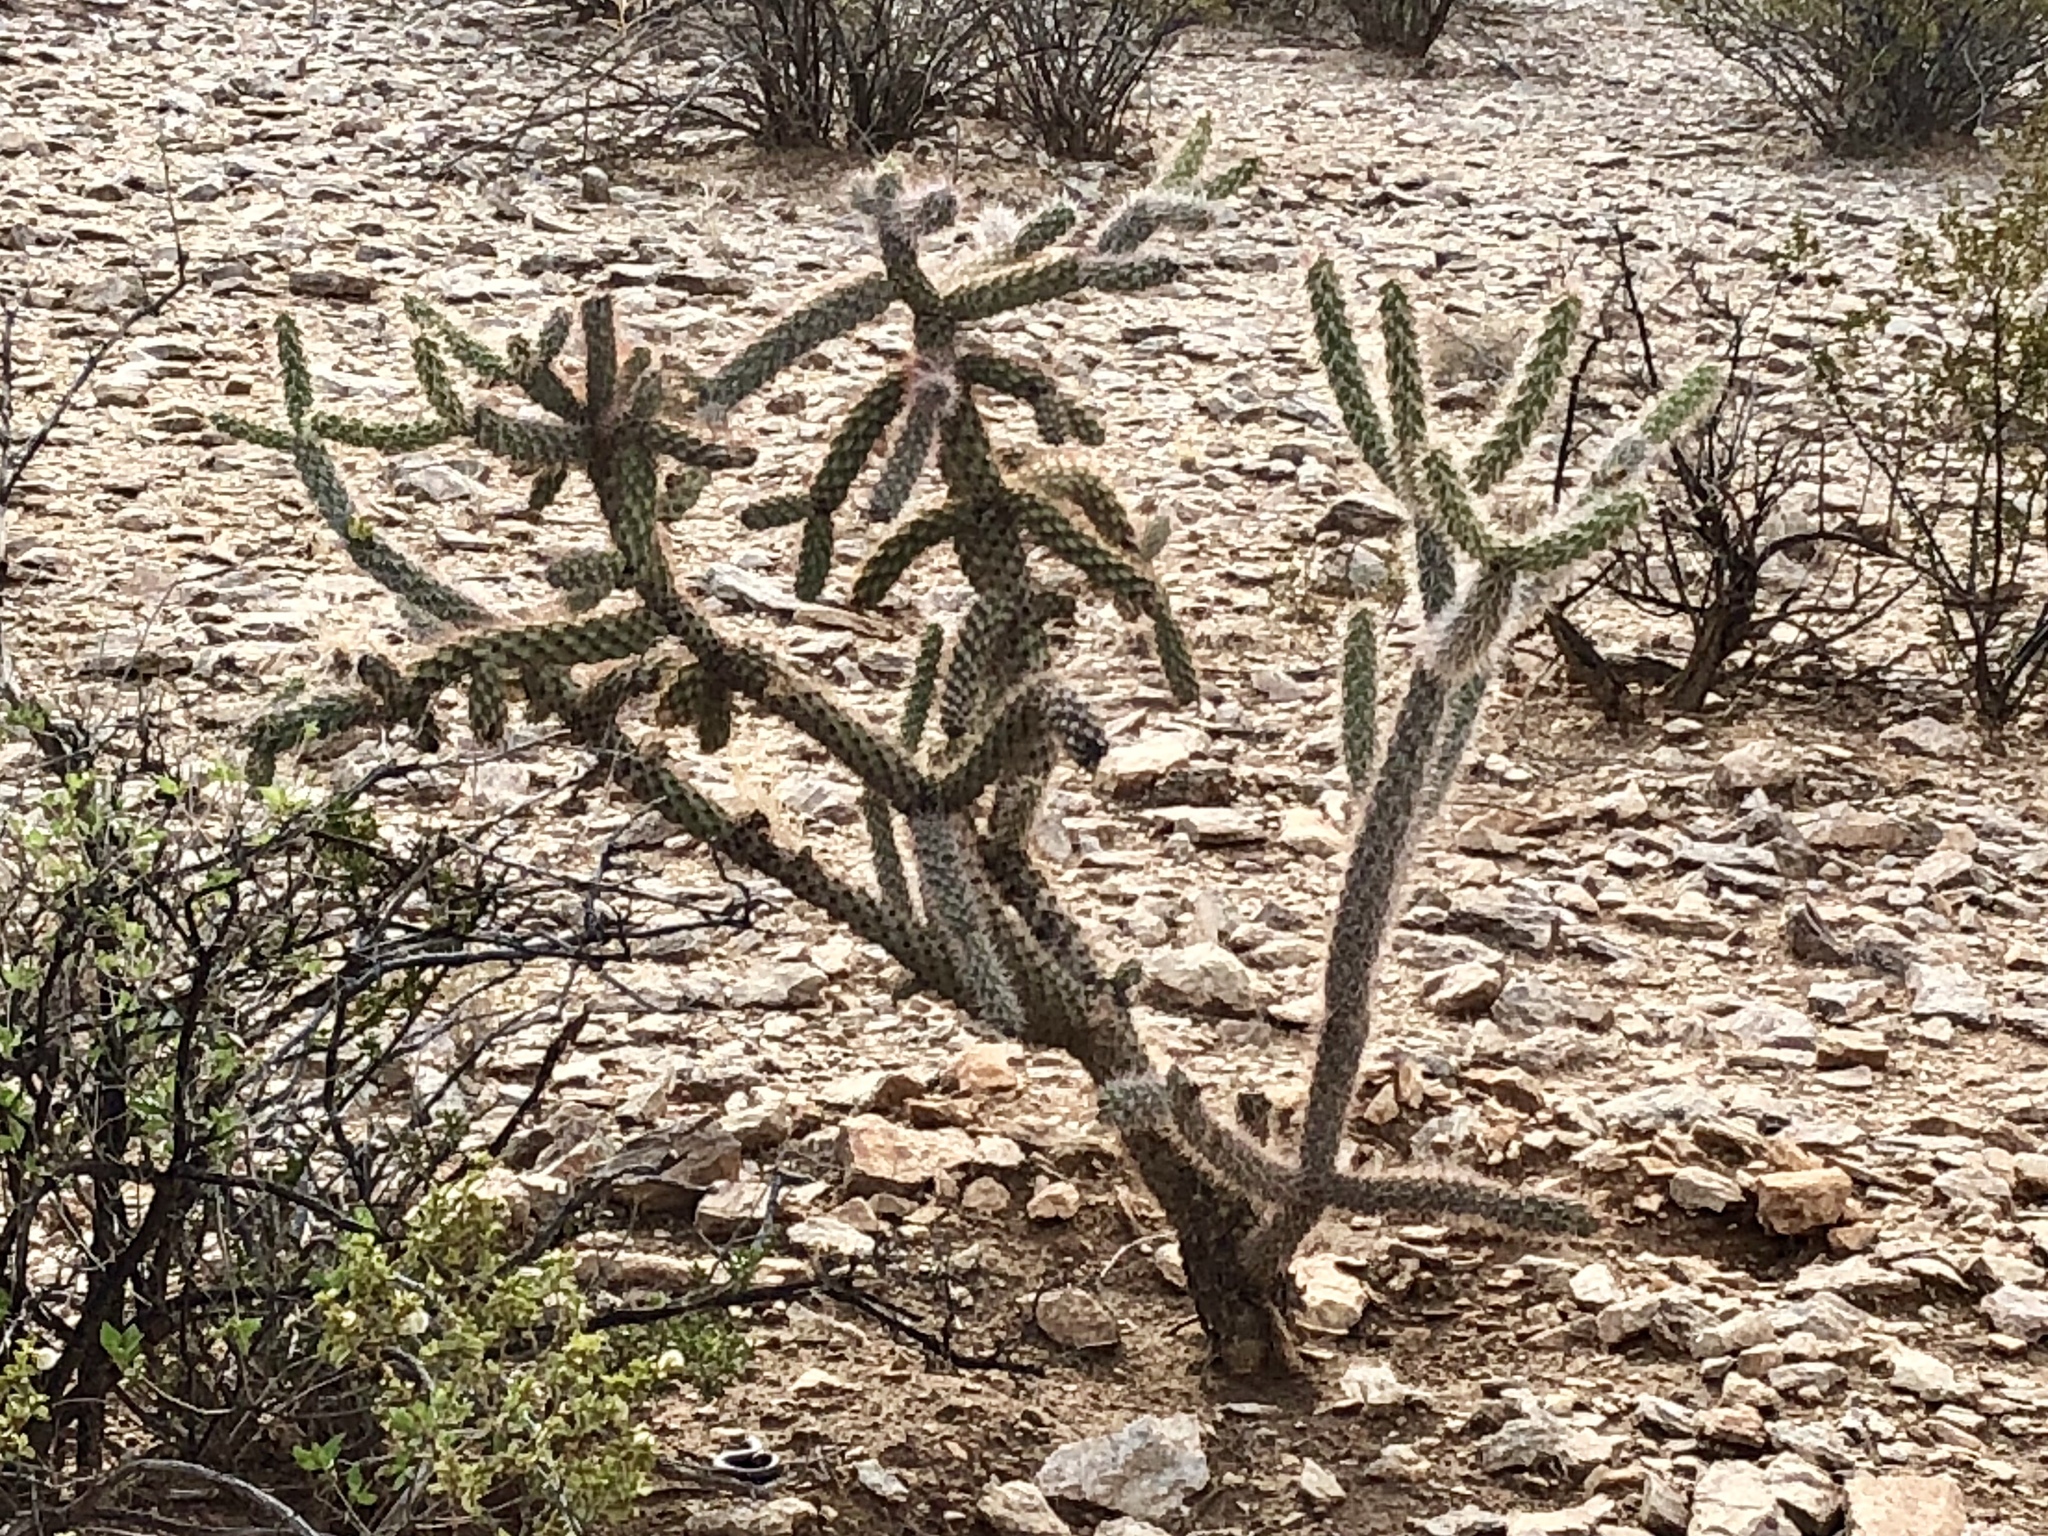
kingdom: Plantae
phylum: Tracheophyta
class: Magnoliopsida
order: Caryophyllales
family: Cactaceae
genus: Cylindropuntia
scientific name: Cylindropuntia imbricata
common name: Candelabrum cactus
